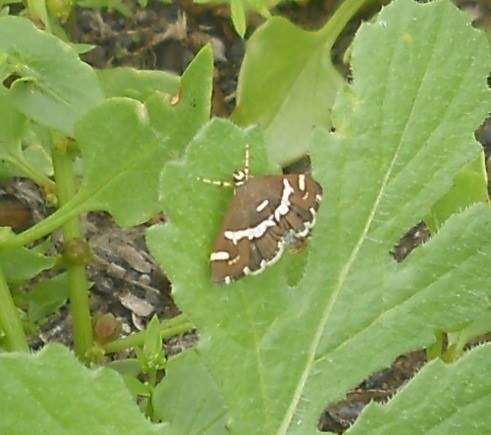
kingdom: Animalia
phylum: Arthropoda
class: Insecta
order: Lepidoptera
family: Crambidae
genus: Spoladea
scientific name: Spoladea recurvalis
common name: Beet webworm moth
